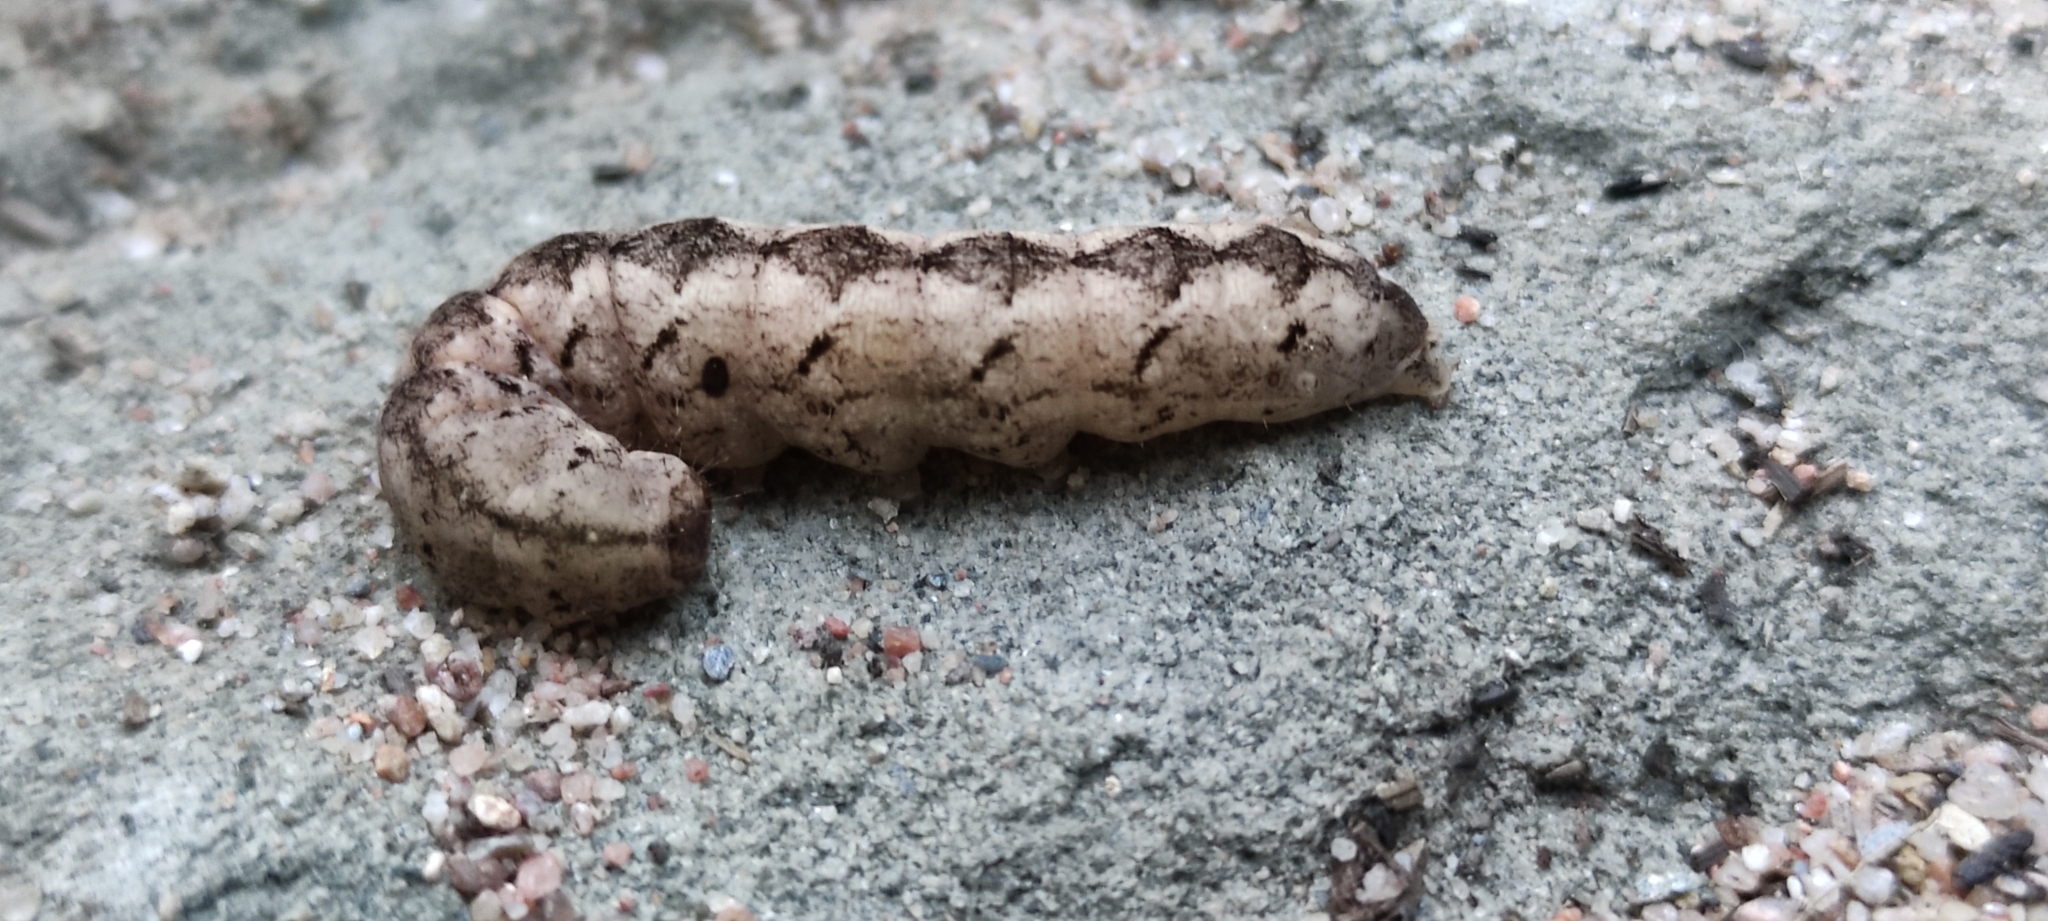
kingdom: Animalia
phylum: Arthropoda
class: Insecta
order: Lepidoptera
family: Noctuidae
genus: Polia
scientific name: Polia nebulosa
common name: Grey arches
